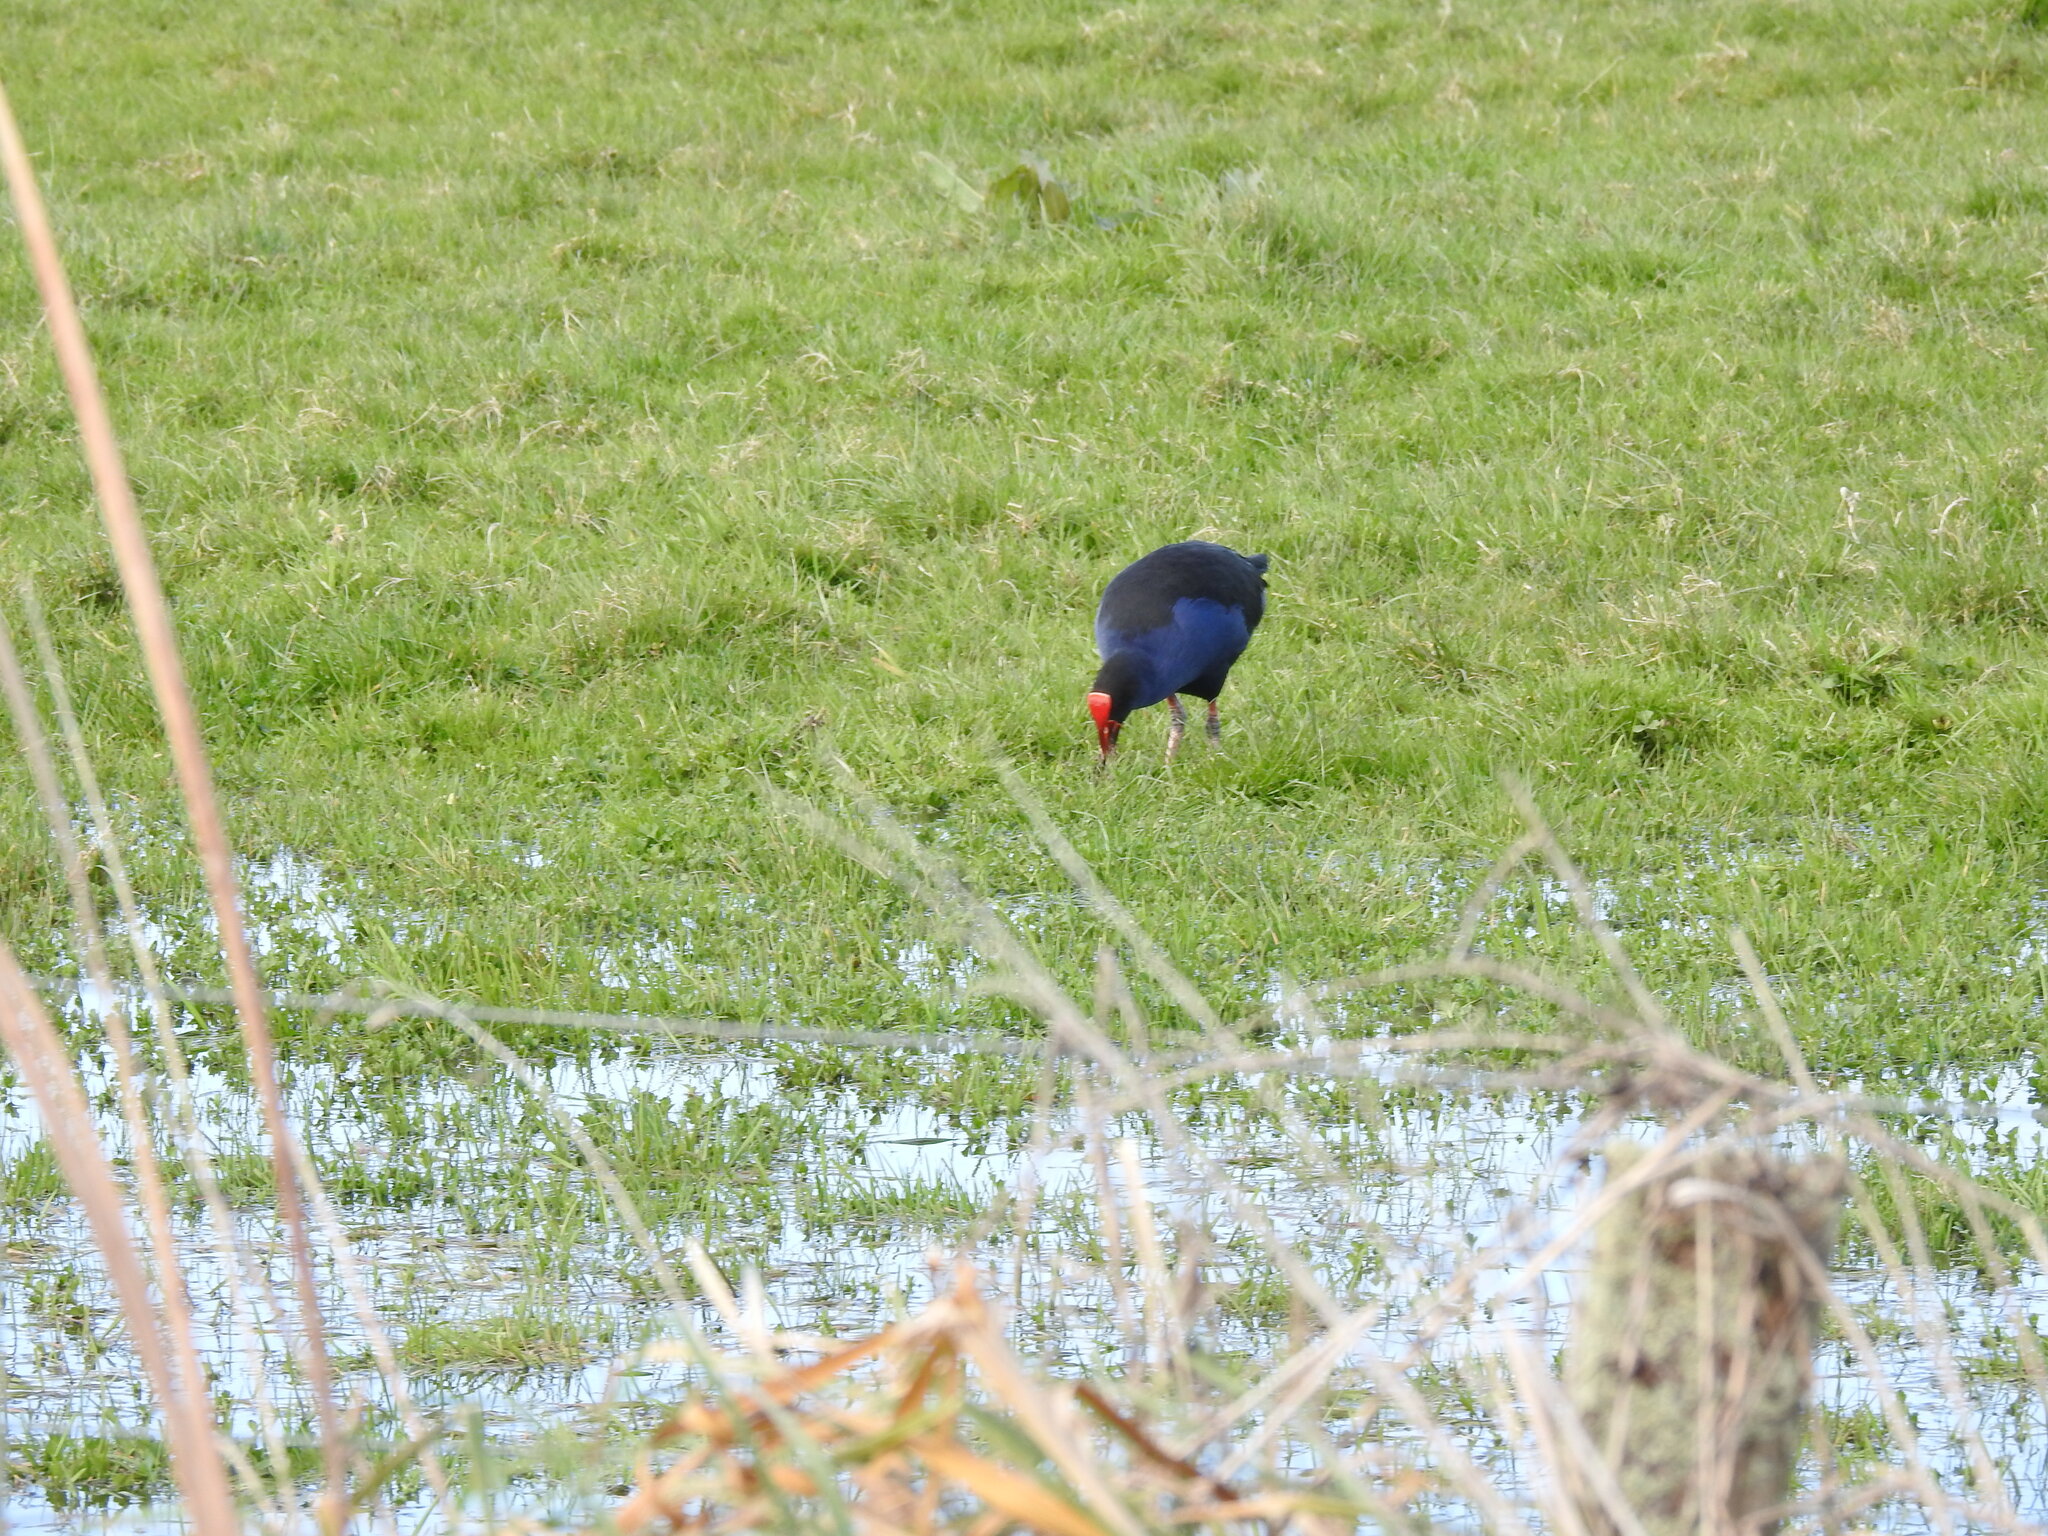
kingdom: Animalia
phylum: Chordata
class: Aves
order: Gruiformes
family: Rallidae
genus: Porphyrio
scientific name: Porphyrio melanotus
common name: Australasian swamphen
